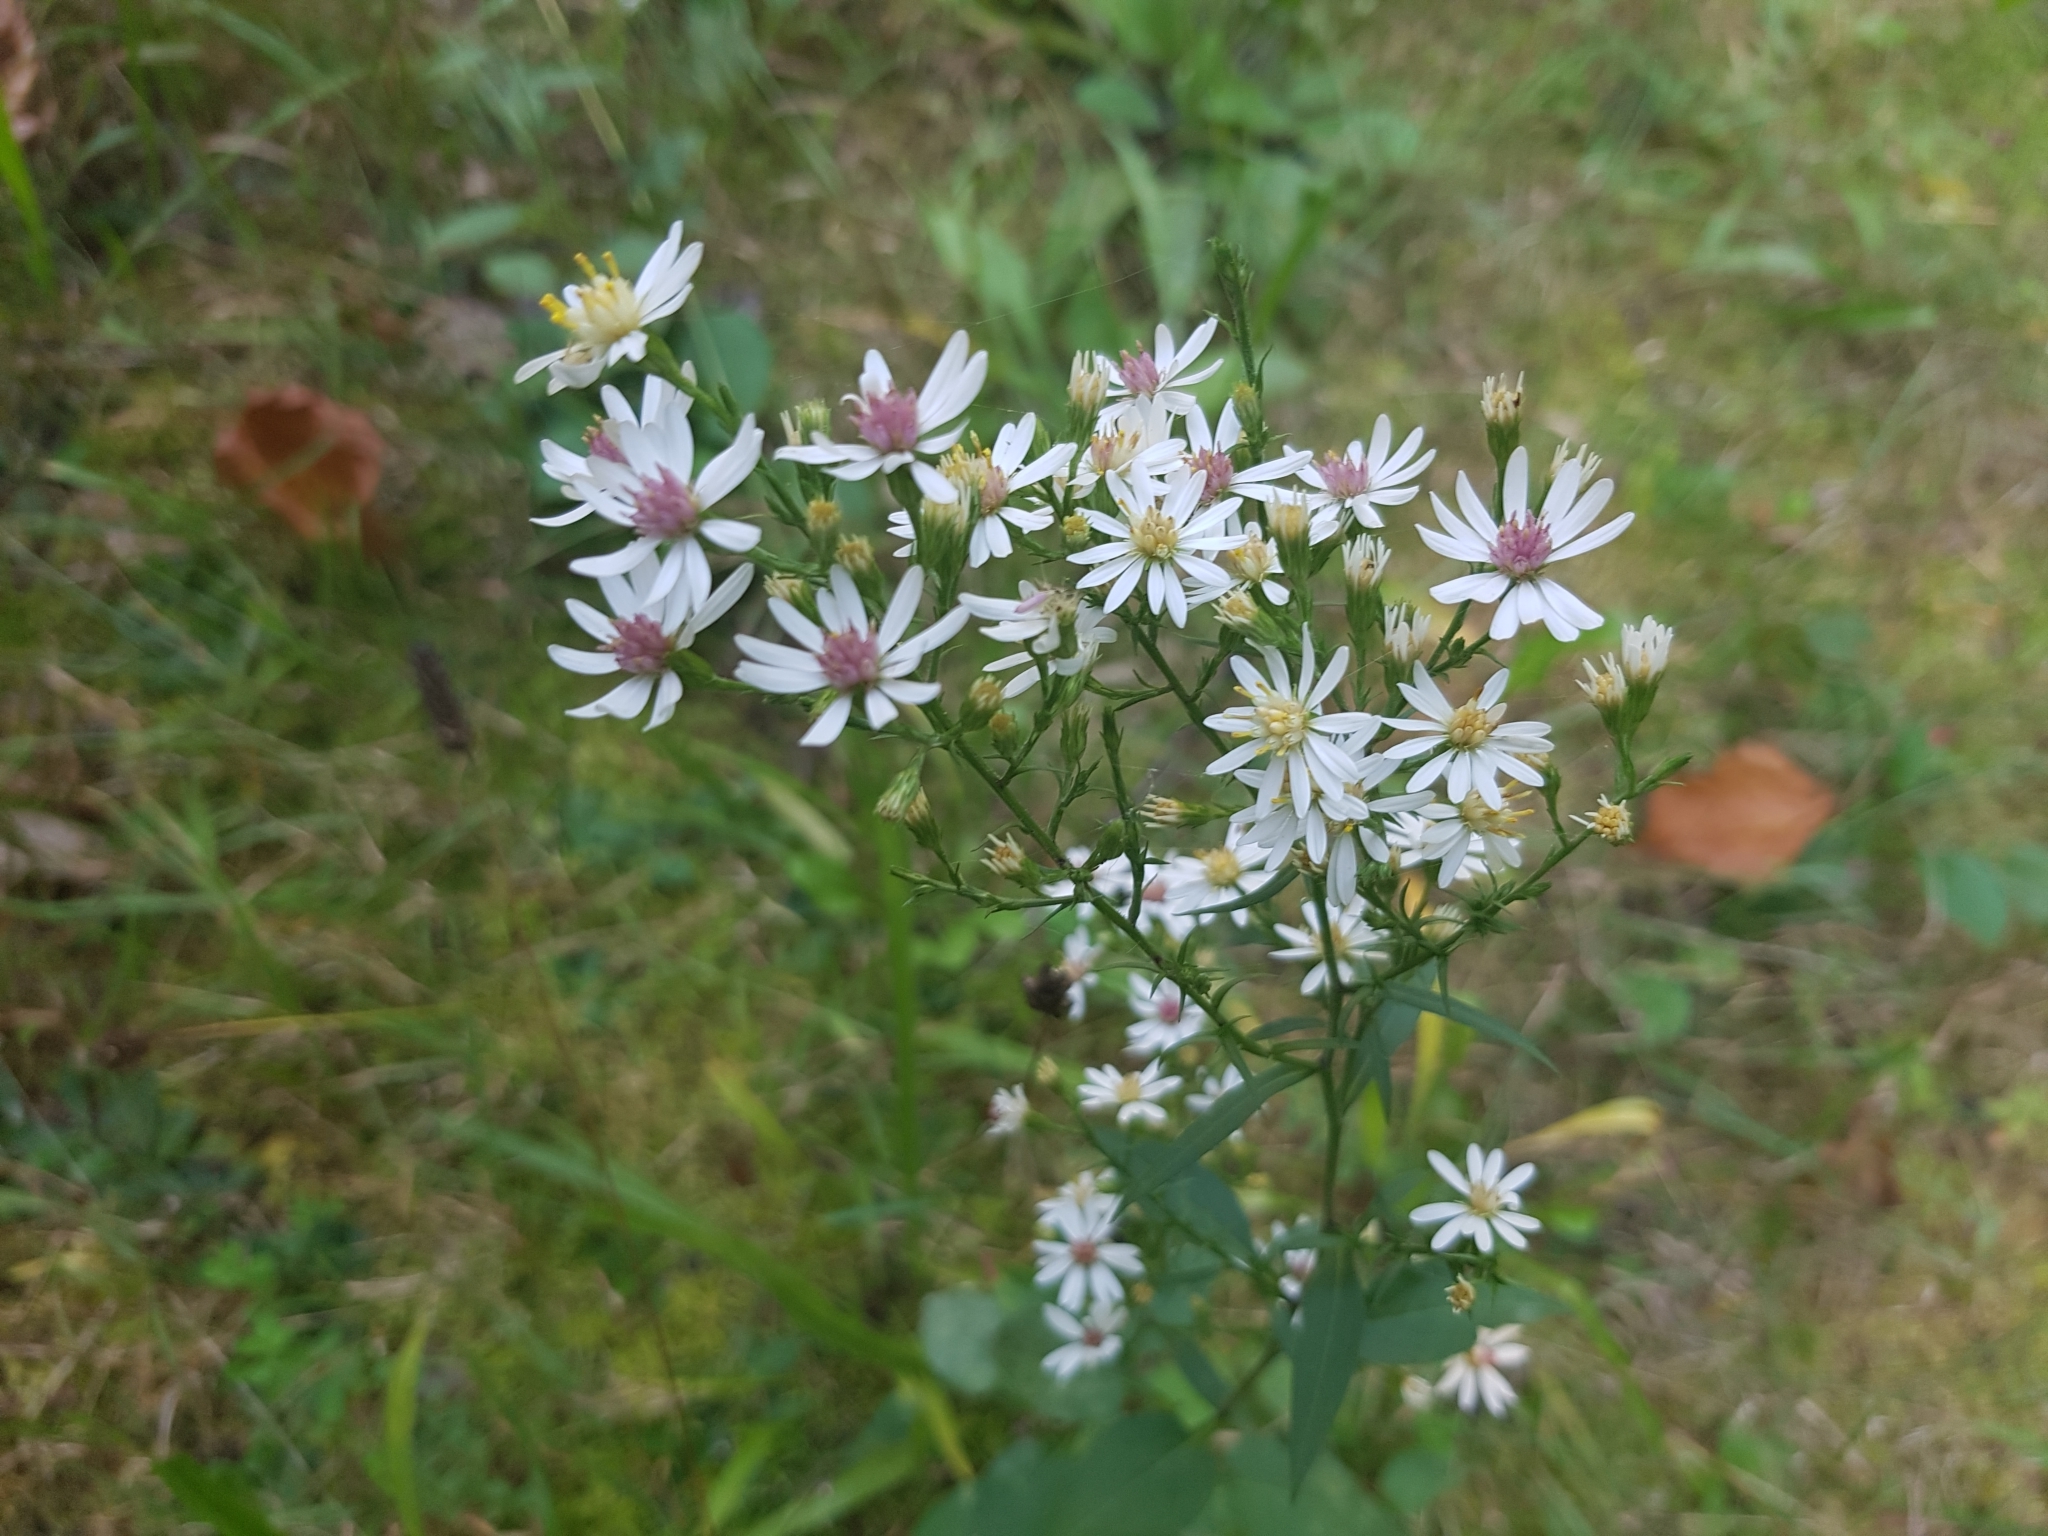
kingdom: Plantae
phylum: Tracheophyta
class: Magnoliopsida
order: Asterales
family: Asteraceae
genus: Symphyotrichum
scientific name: Symphyotrichum urophyllum
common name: Arrow-leaved aster
